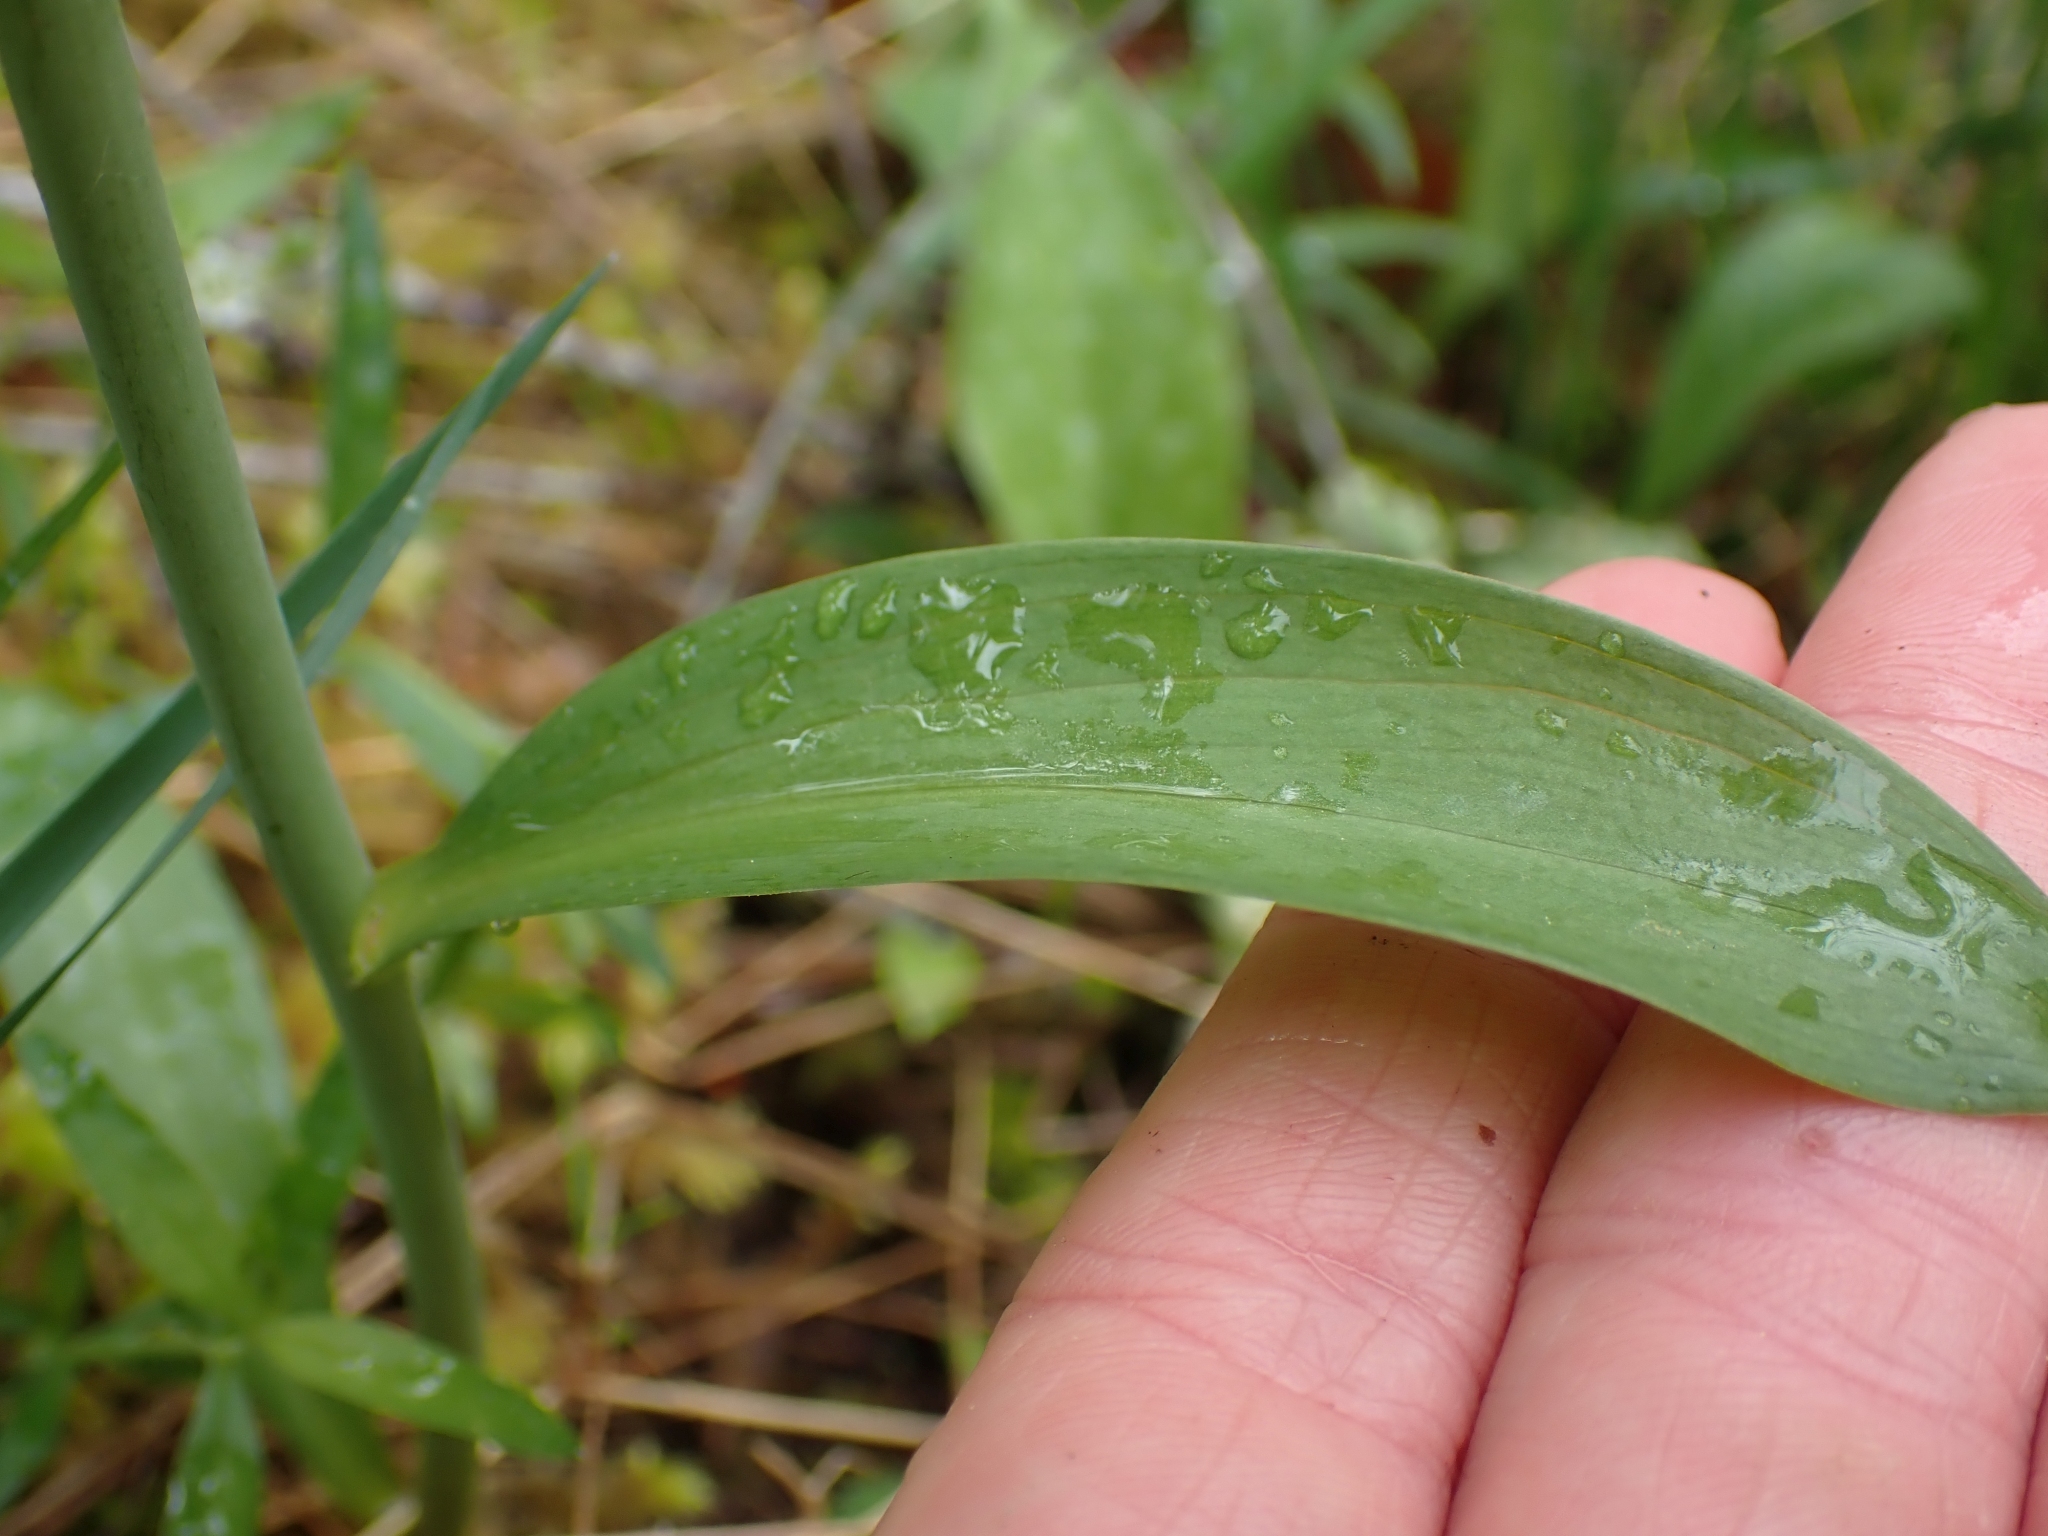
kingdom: Plantae
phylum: Tracheophyta
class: Liliopsida
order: Liliales
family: Liliaceae
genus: Lilium
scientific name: Lilium columbianum
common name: Columbia lily
